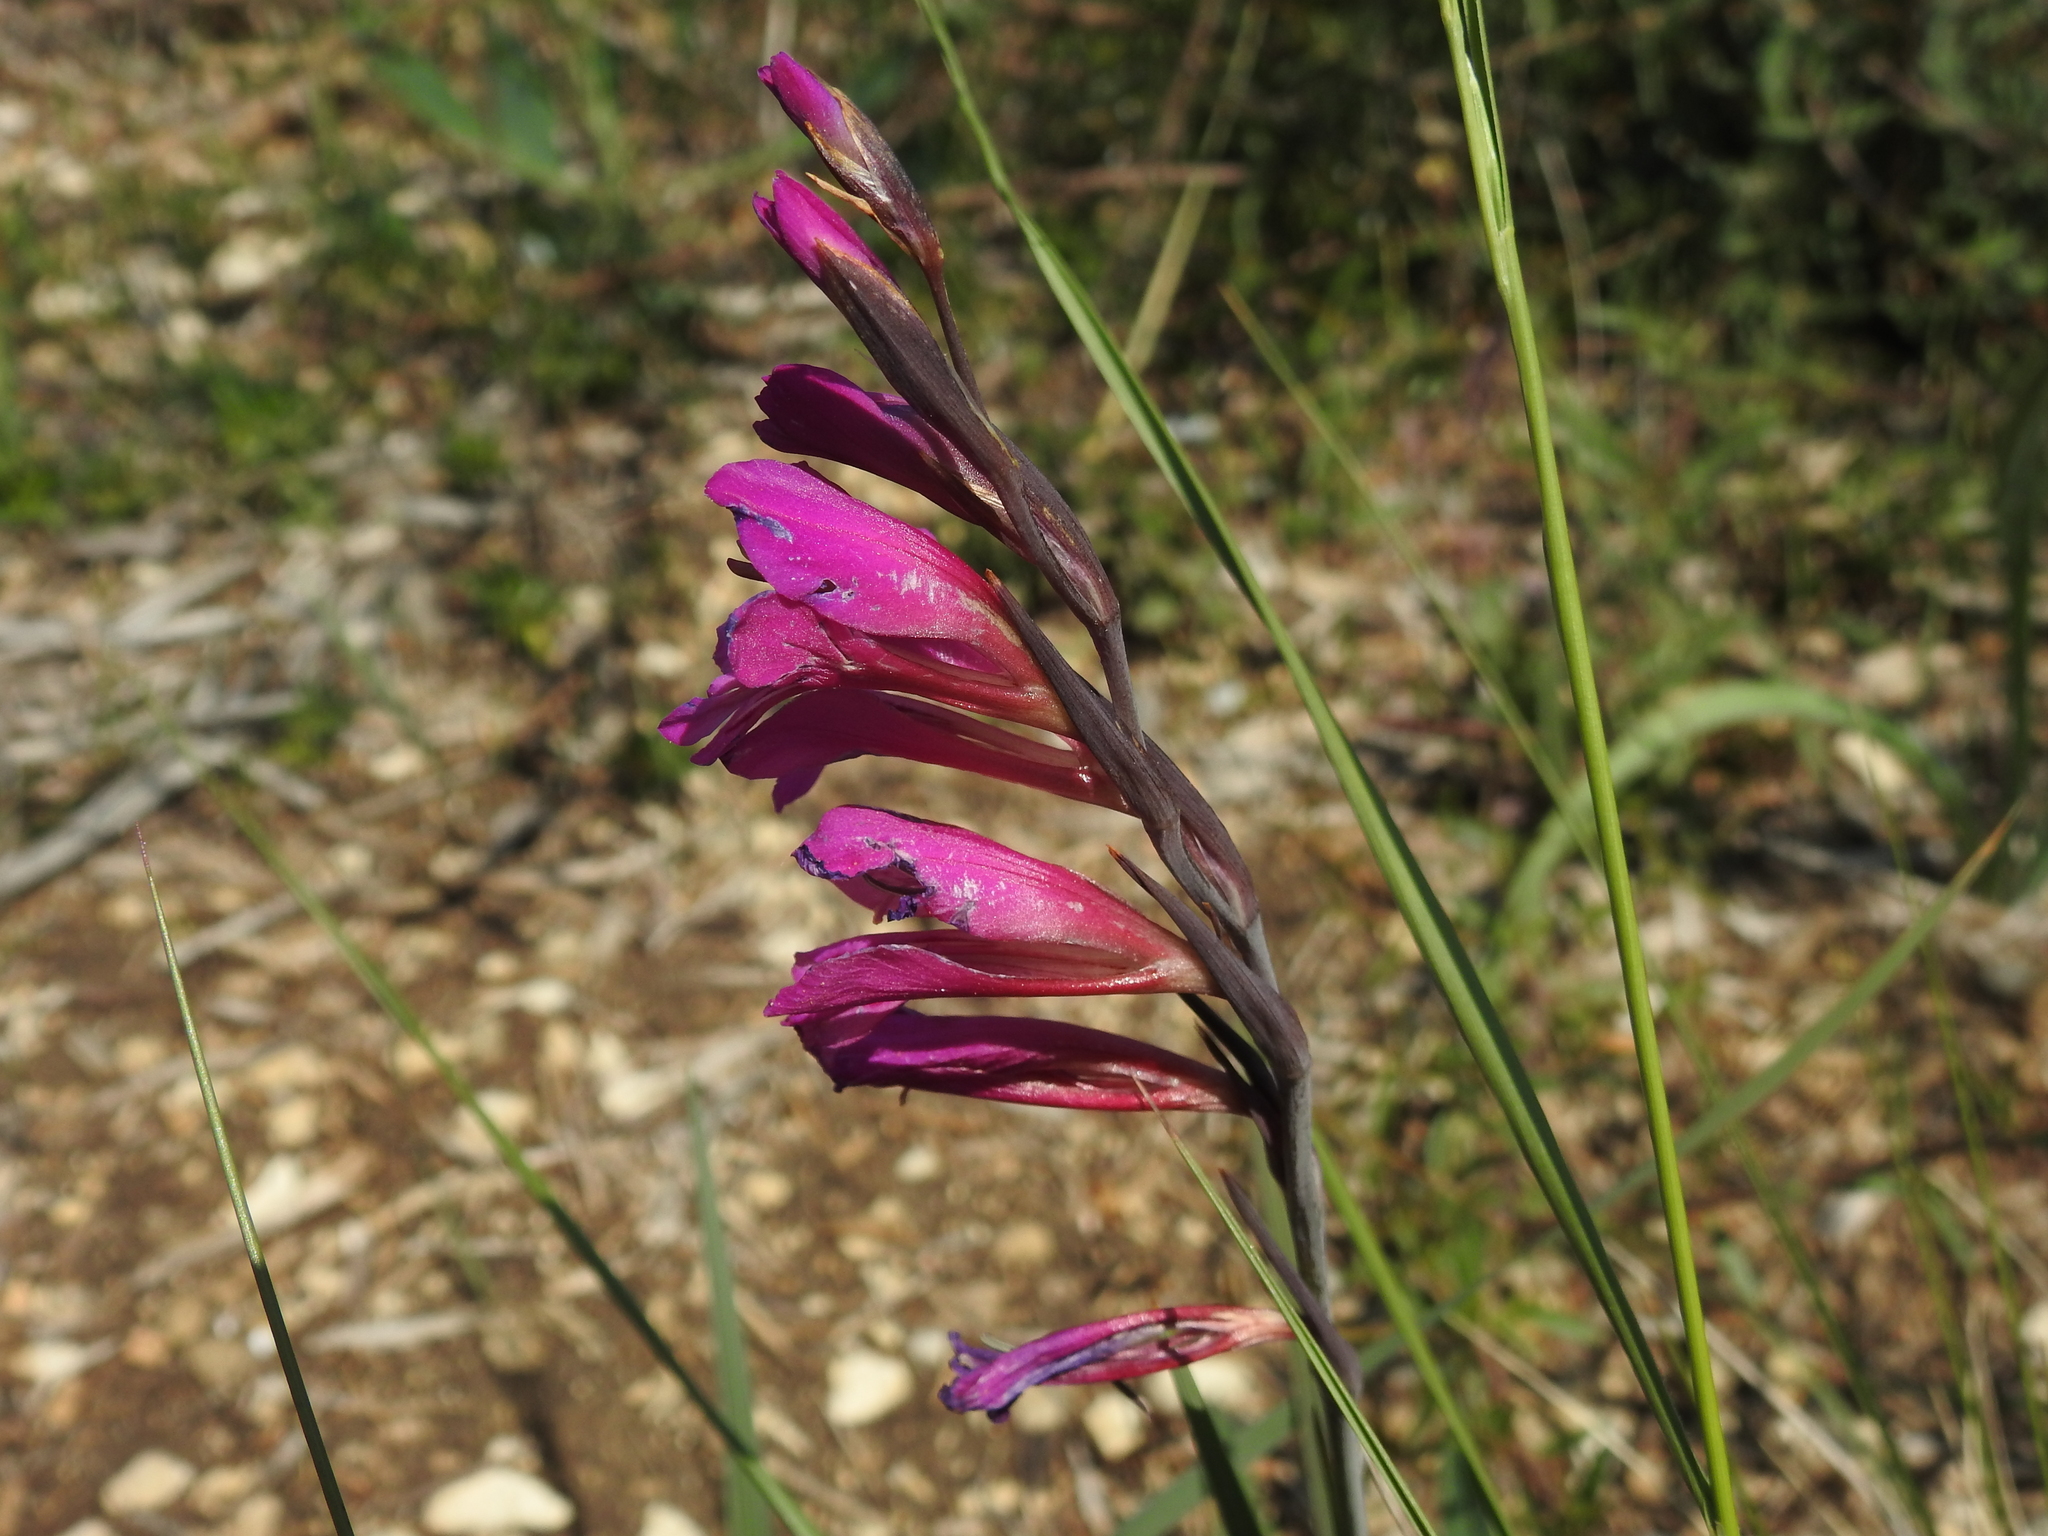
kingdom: Plantae
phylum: Tracheophyta
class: Liliopsida
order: Asparagales
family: Iridaceae
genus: Gladiolus
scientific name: Gladiolus dubius
